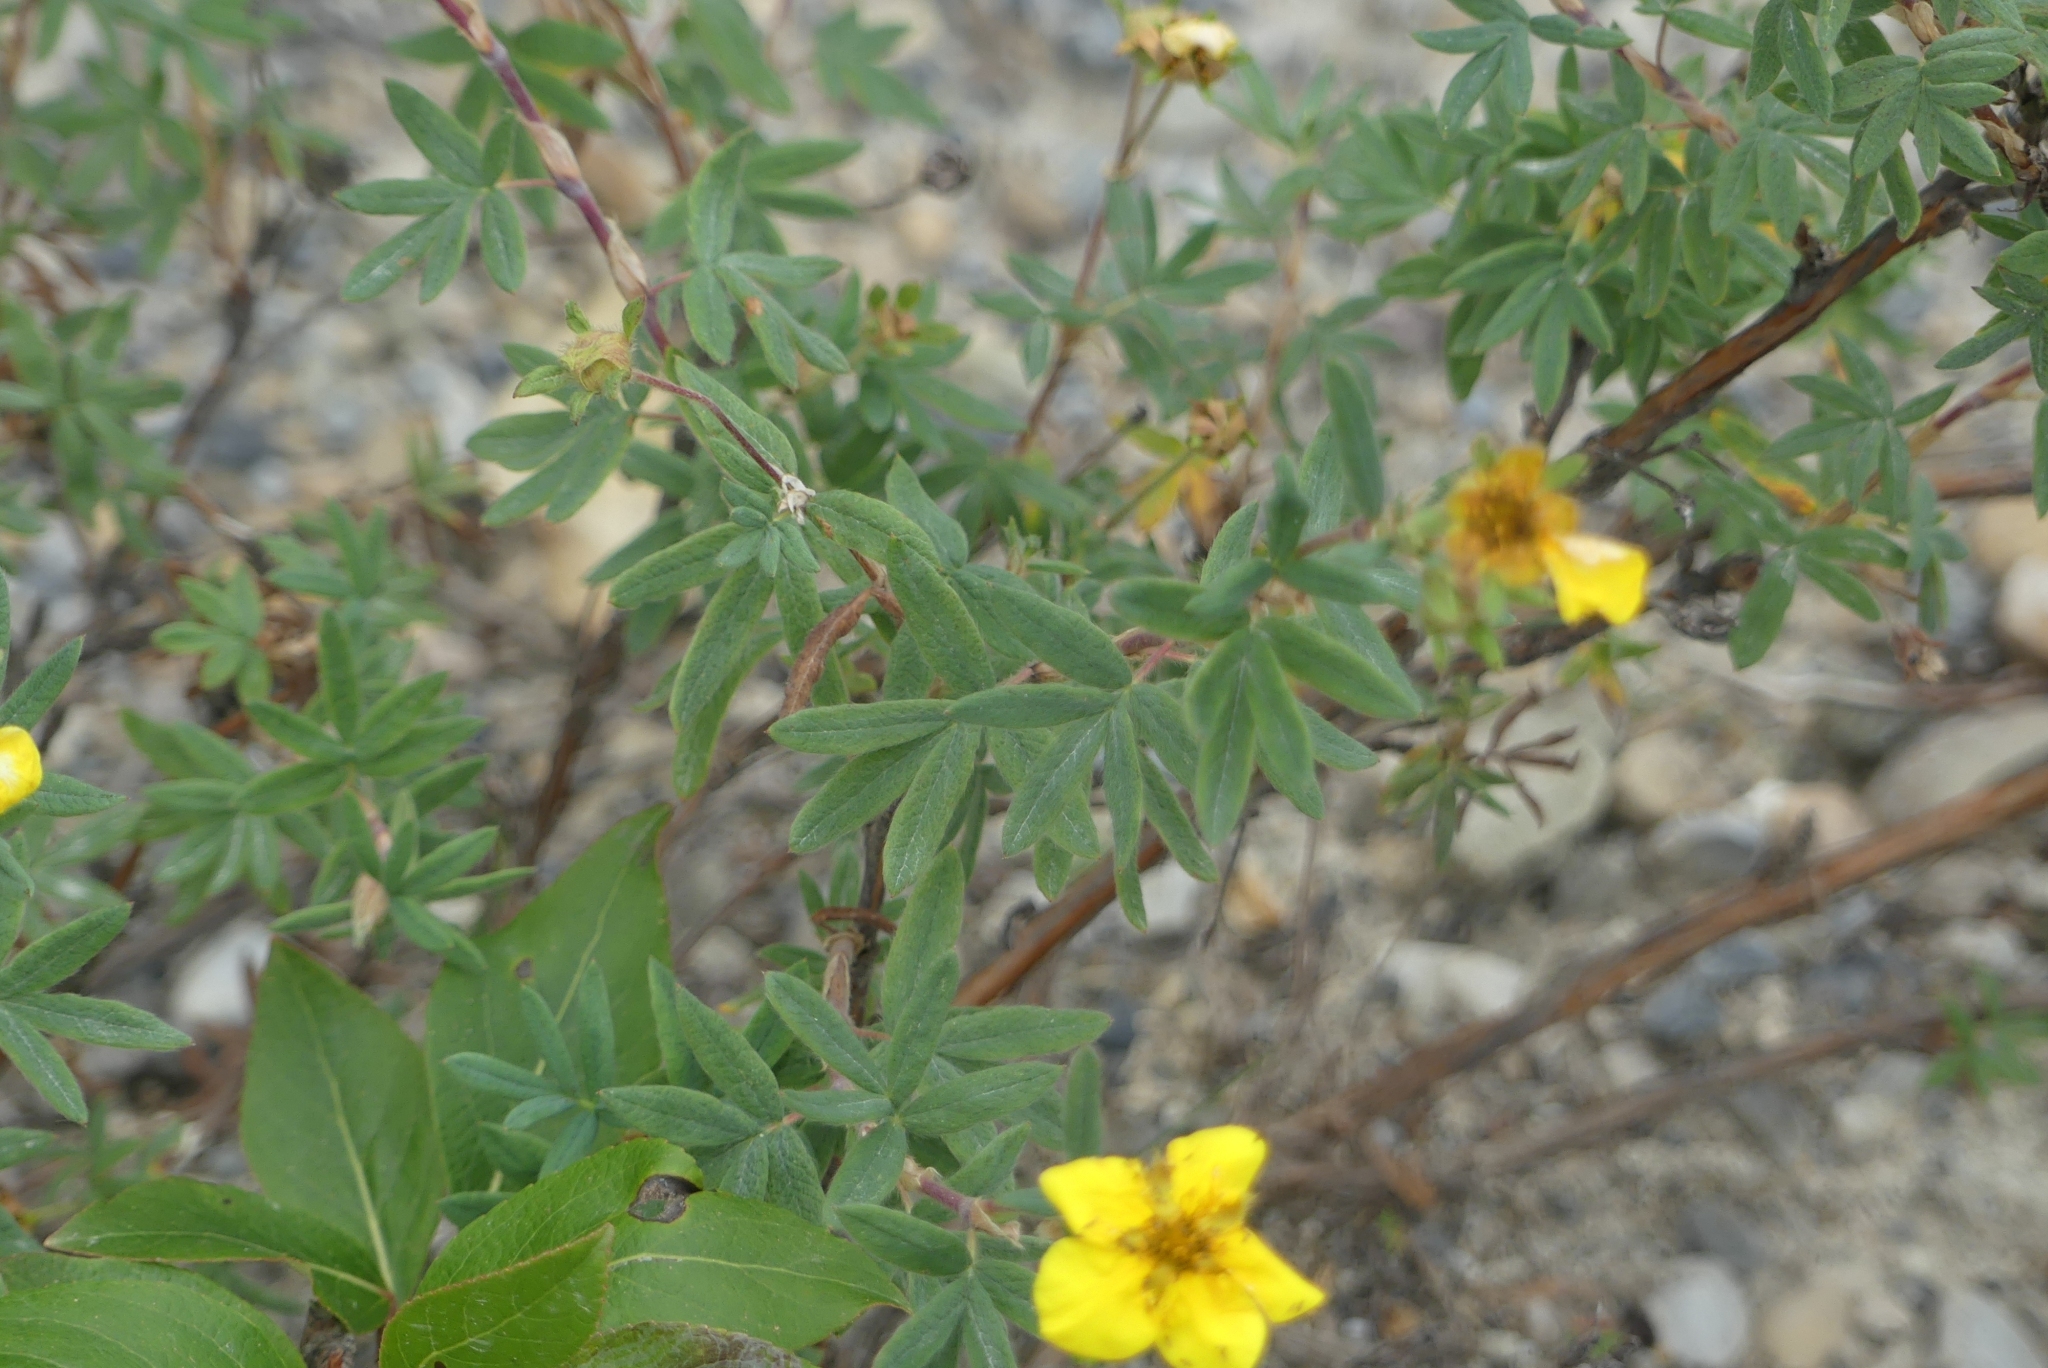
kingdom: Plantae
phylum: Tracheophyta
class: Magnoliopsida
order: Rosales
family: Rosaceae
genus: Dasiphora
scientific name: Dasiphora fruticosa
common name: Shrubby cinquefoil
